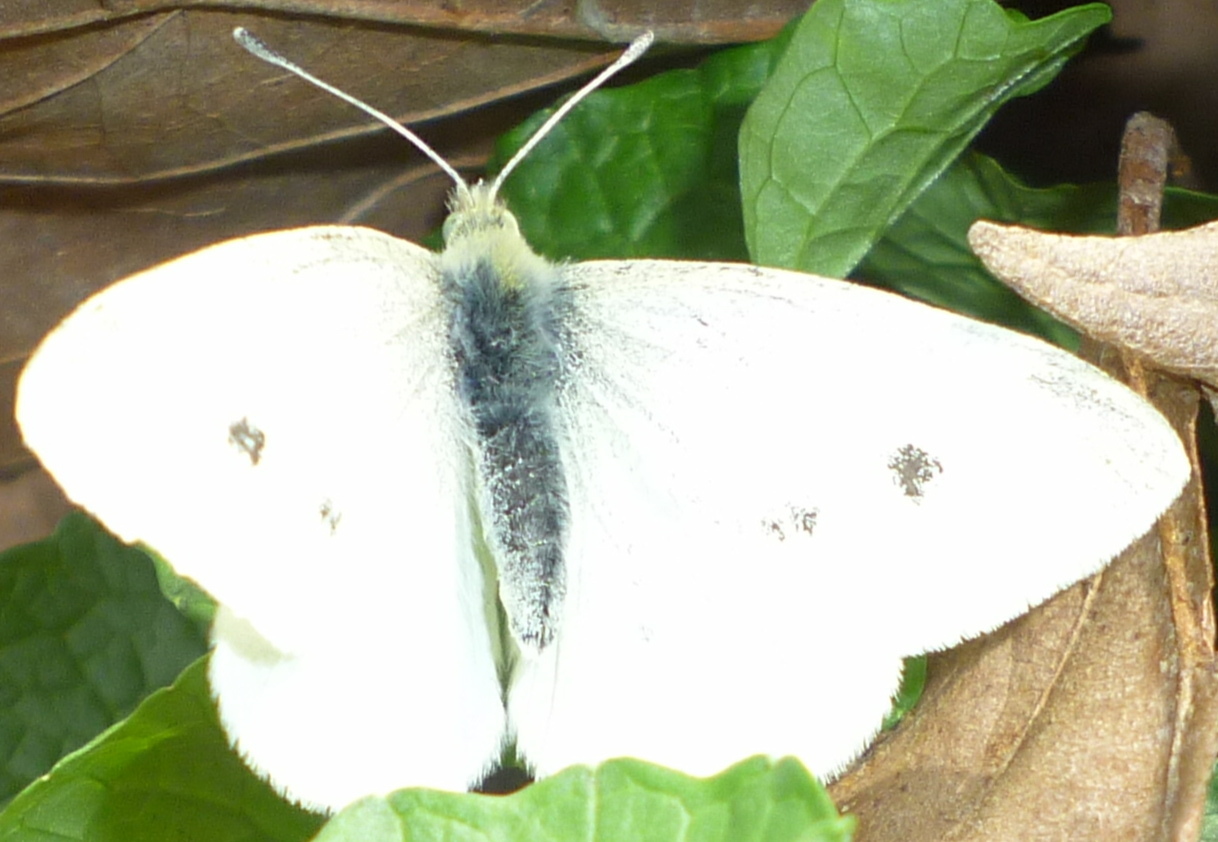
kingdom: Animalia
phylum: Arthropoda
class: Insecta
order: Lepidoptera
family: Pieridae
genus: Pieris
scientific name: Pieris rapae
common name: Small white
